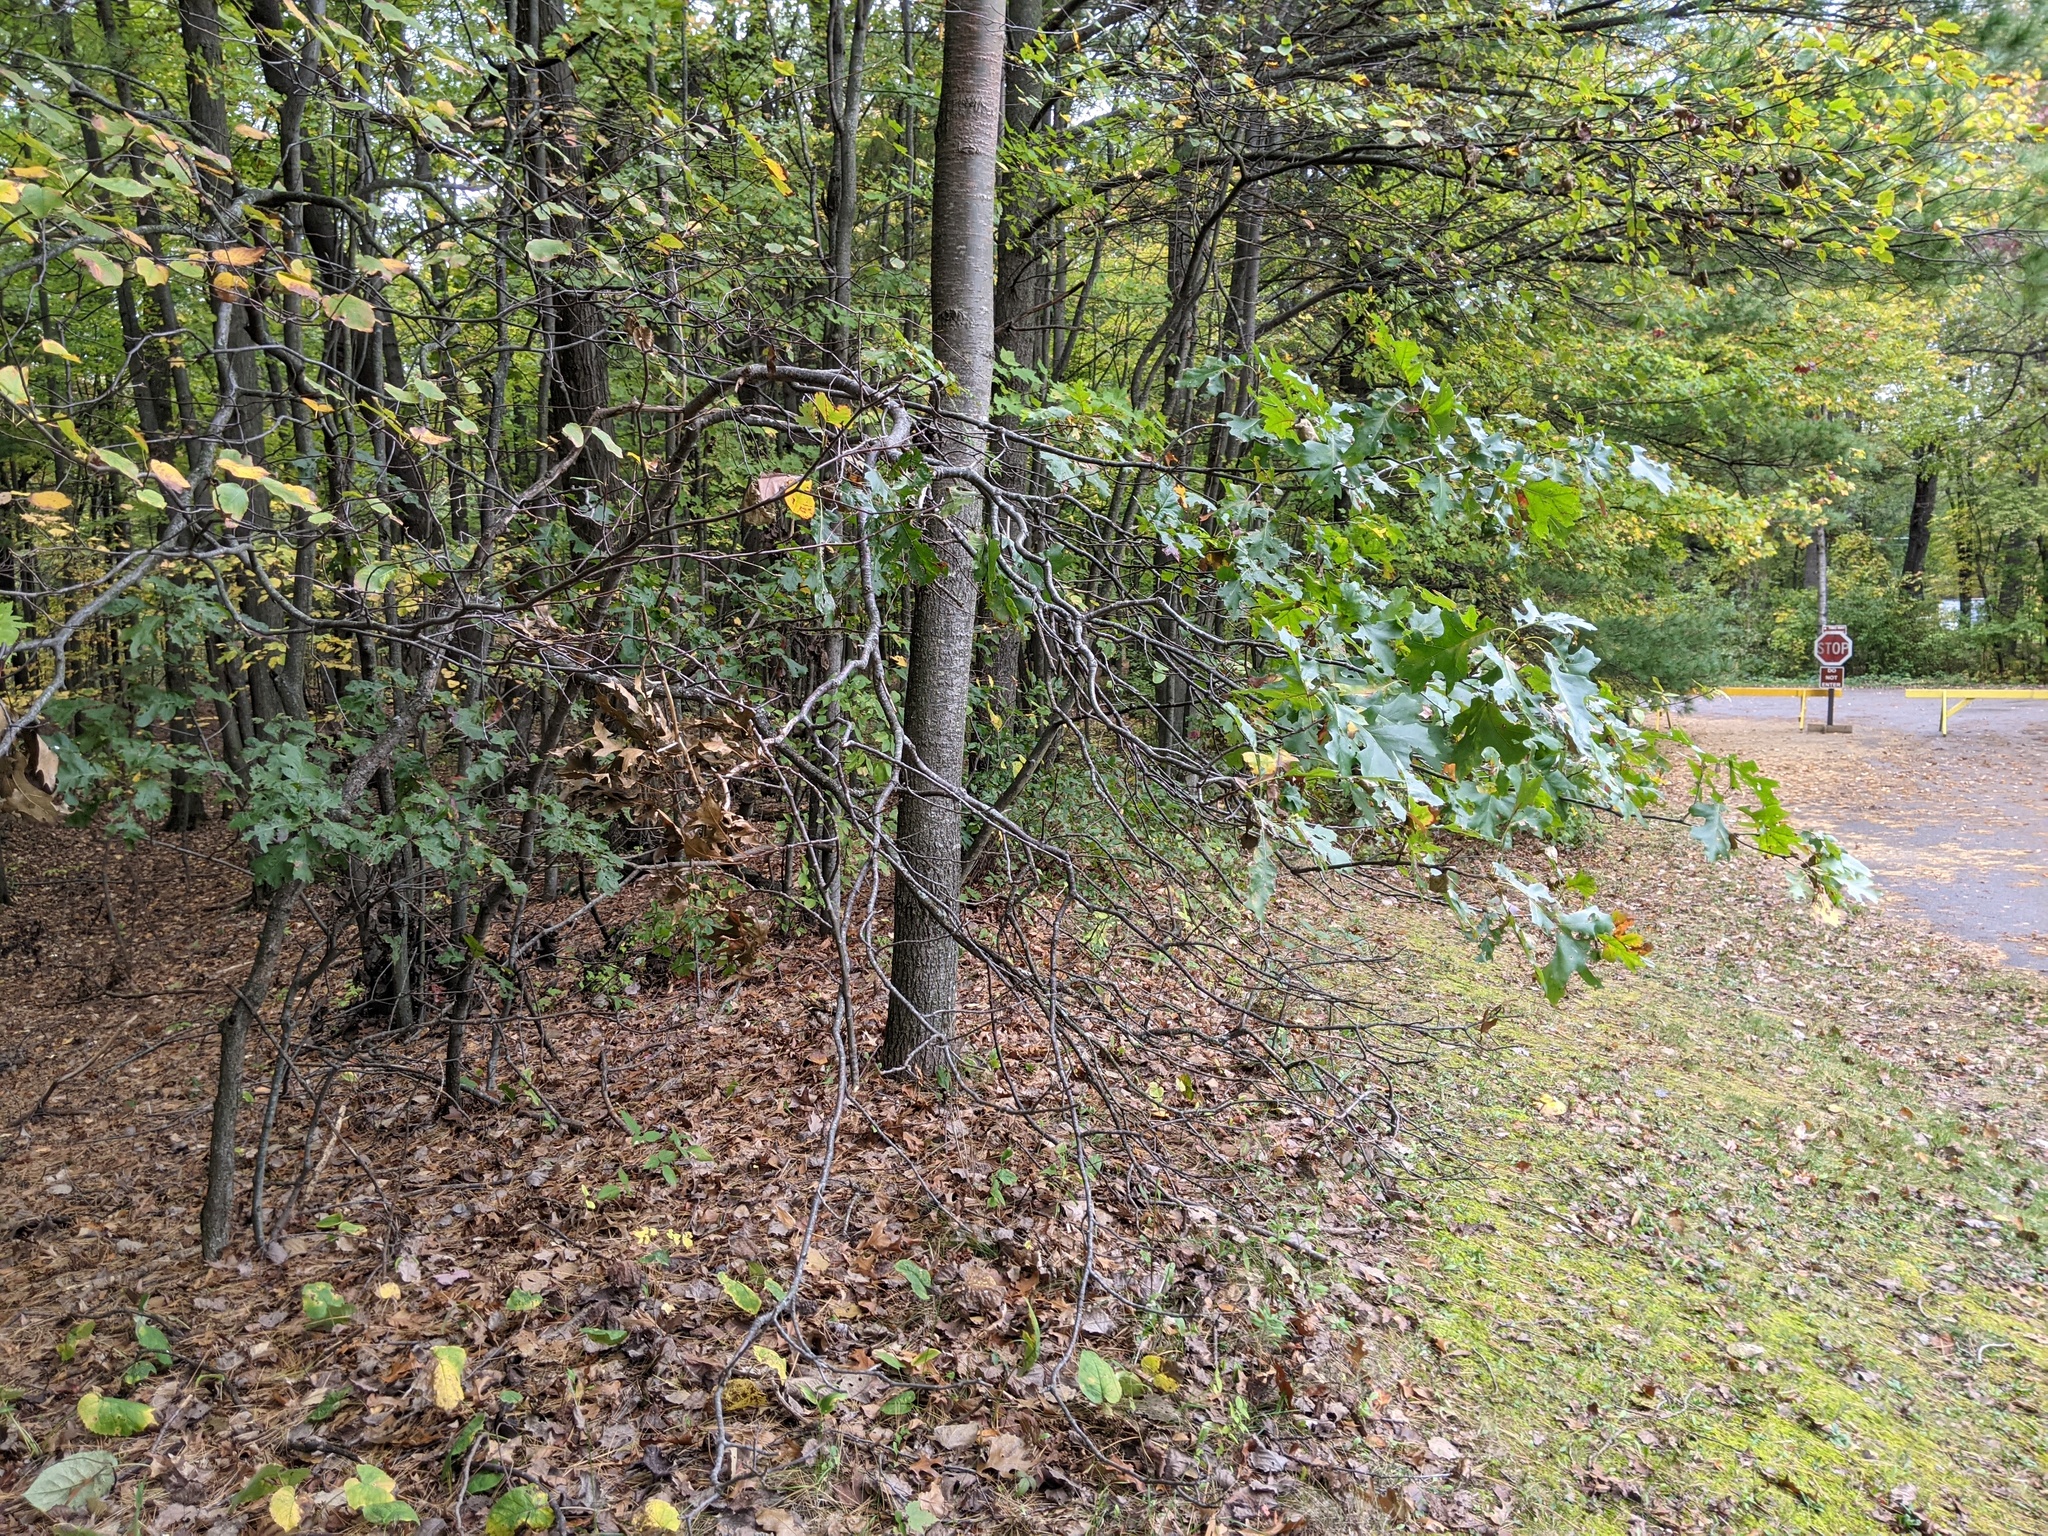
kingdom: Plantae
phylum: Tracheophyta
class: Magnoliopsida
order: Fagales
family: Fagaceae
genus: Quercus
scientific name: Quercus velutina
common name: Black oak
